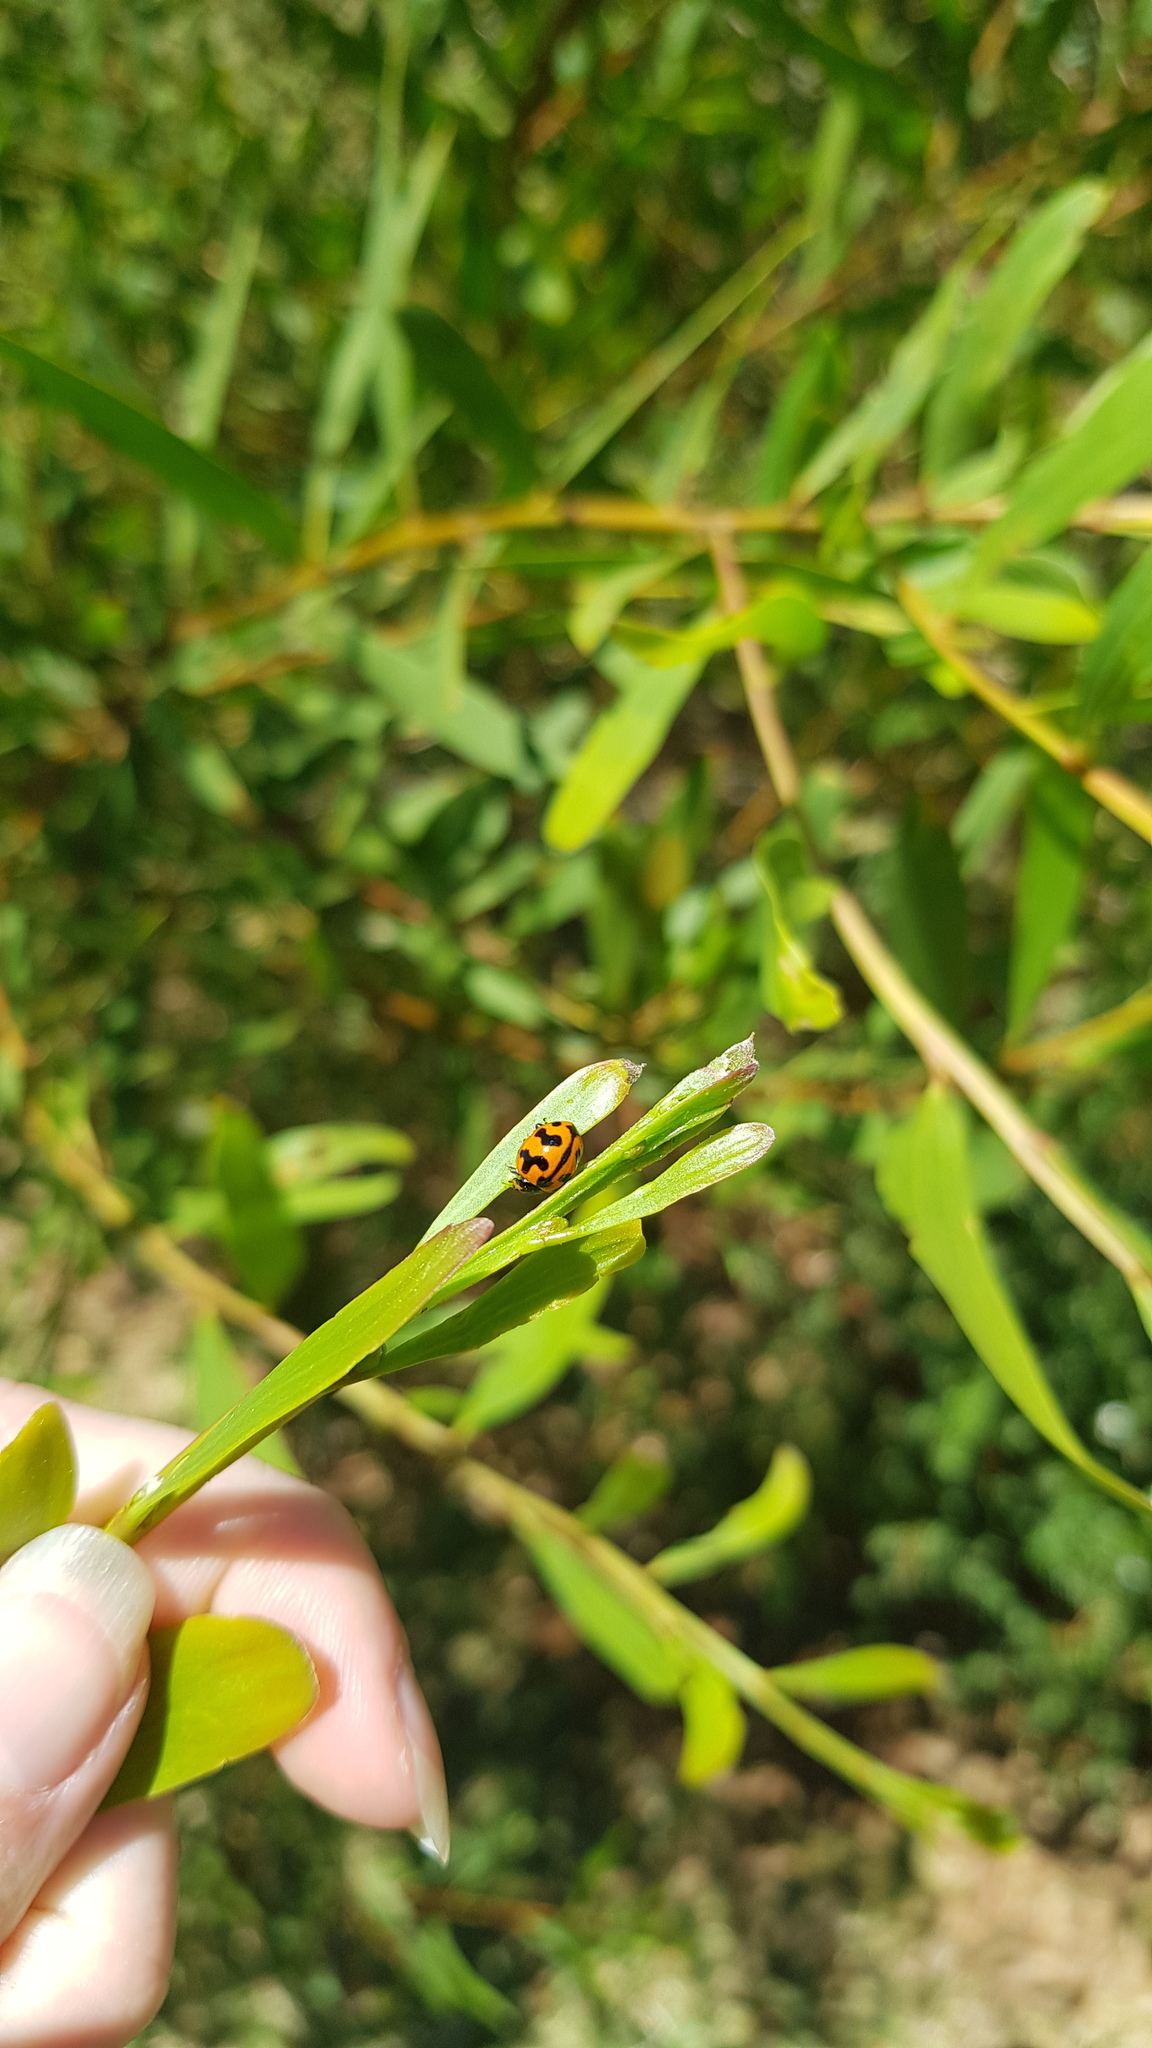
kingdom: Animalia
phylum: Arthropoda
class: Insecta
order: Coleoptera
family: Coccinellidae
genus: Coccinella
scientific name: Coccinella transversalis
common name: Transverse lady beetle
